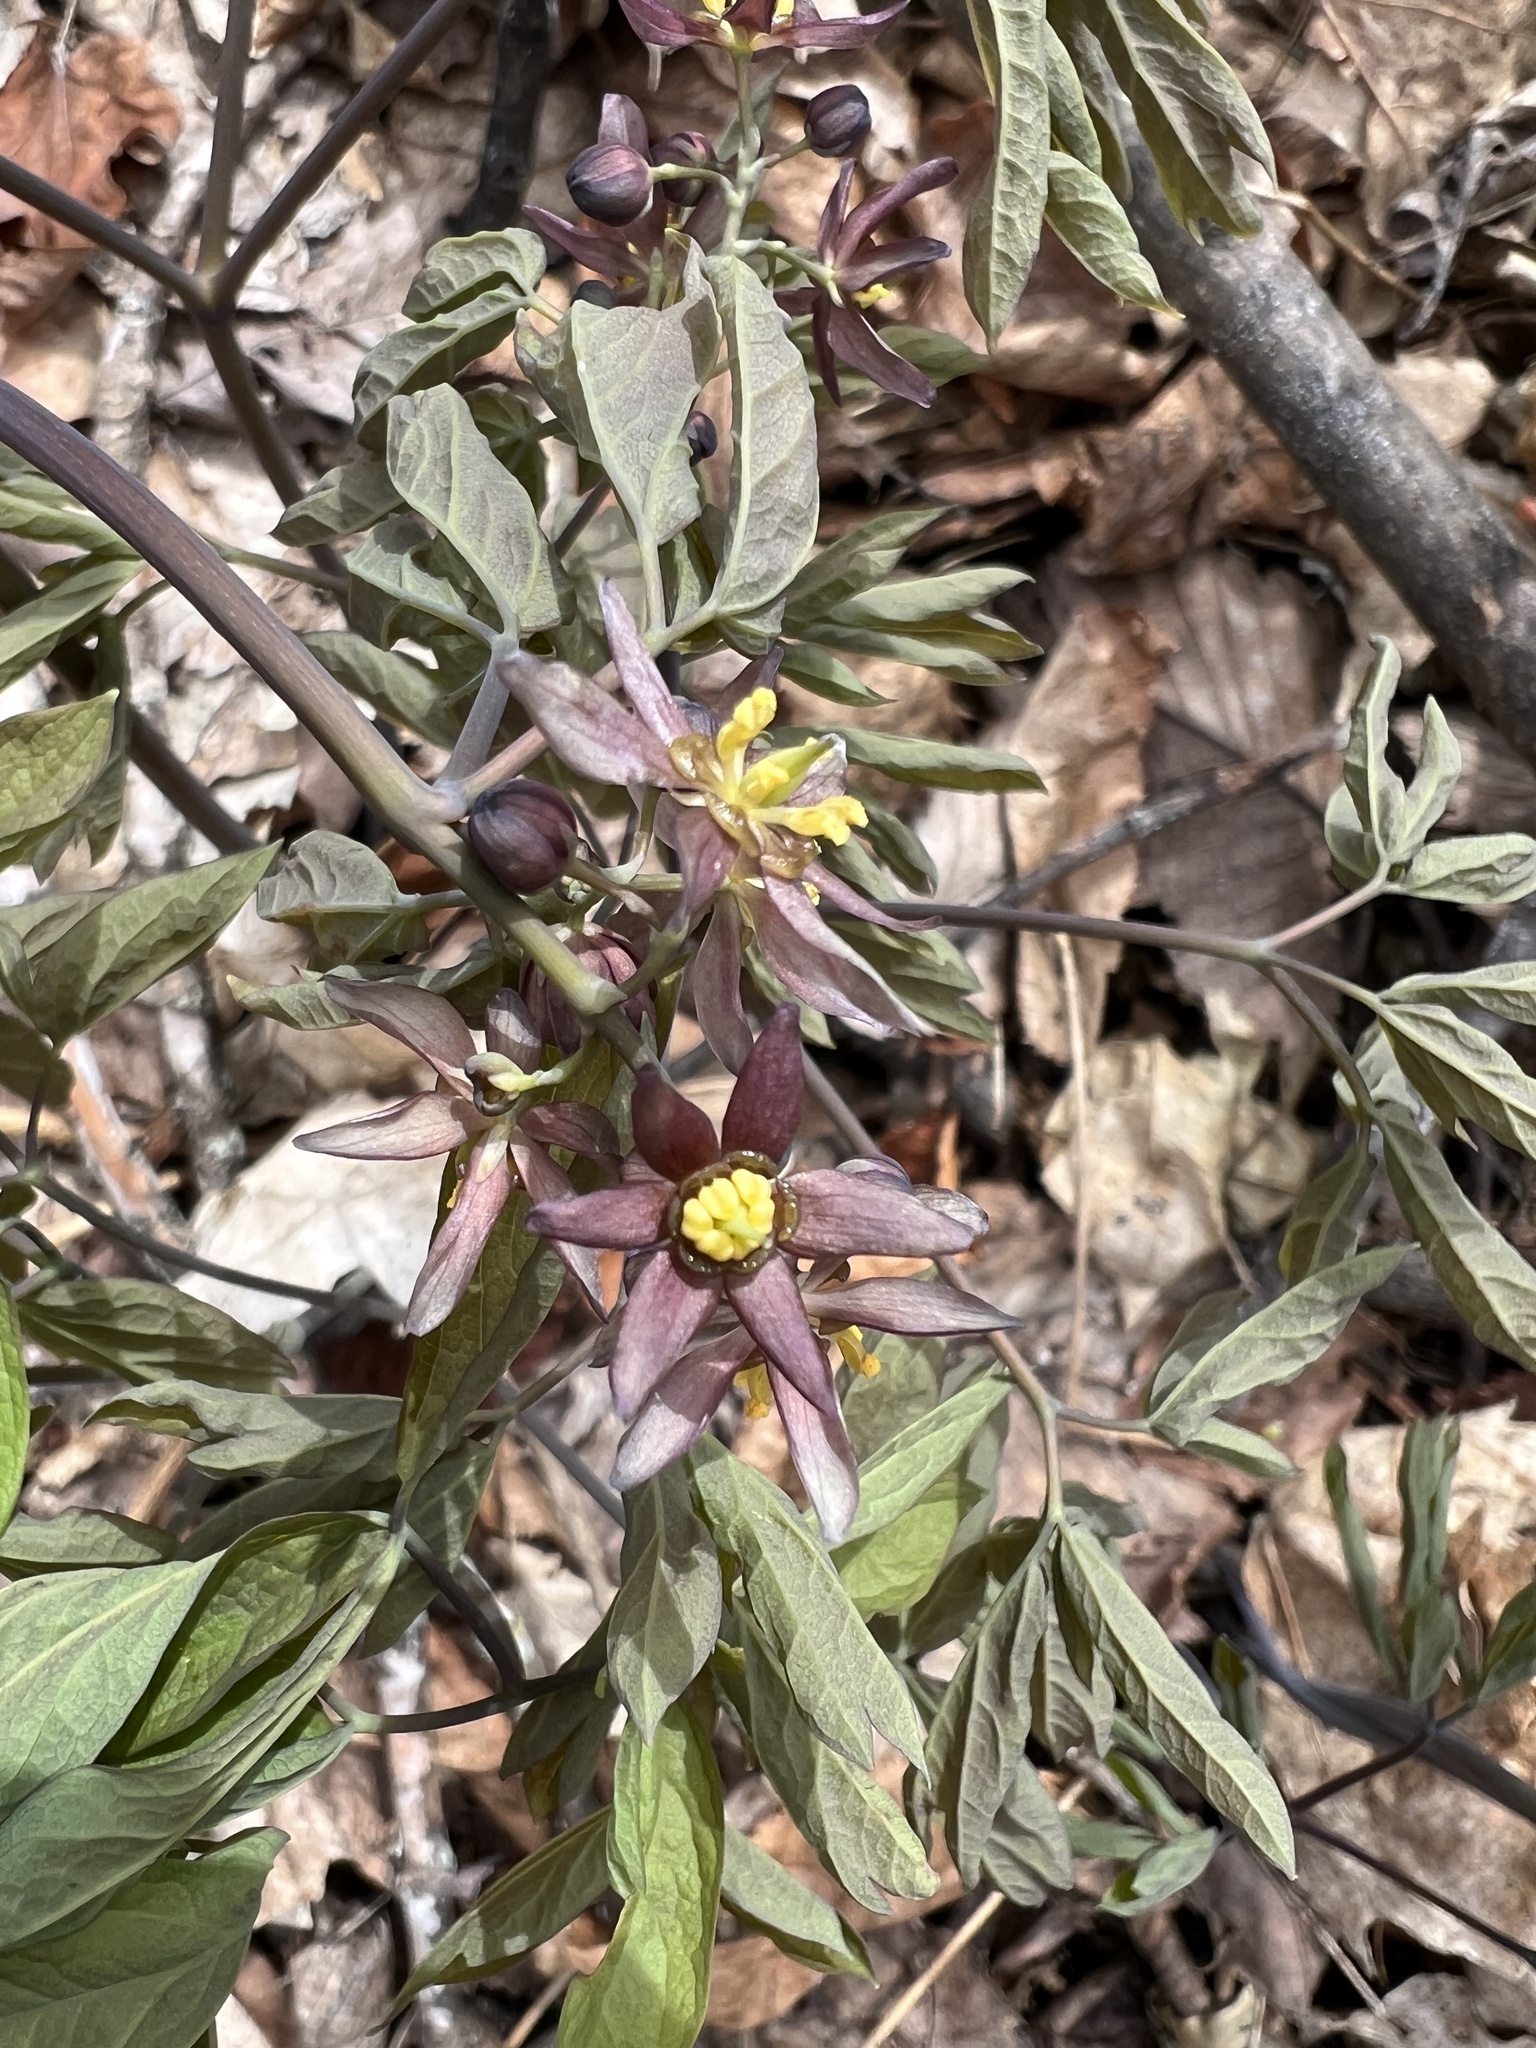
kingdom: Plantae
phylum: Tracheophyta
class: Magnoliopsida
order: Ranunculales
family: Berberidaceae
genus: Caulophyllum
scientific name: Caulophyllum giganteum
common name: Blue cohosh
